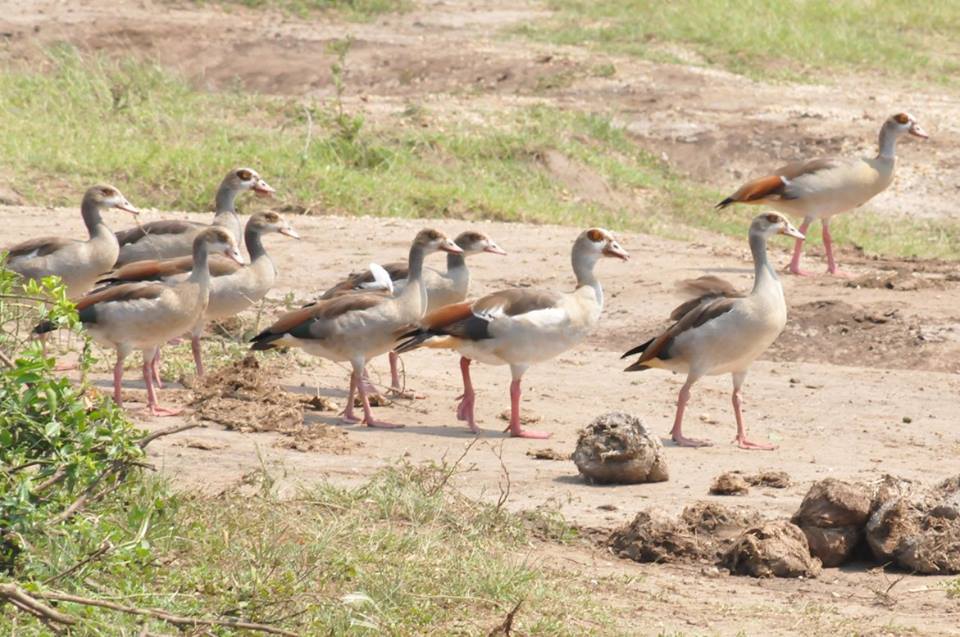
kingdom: Animalia
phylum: Chordata
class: Aves
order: Anseriformes
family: Anatidae
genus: Alopochen
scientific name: Alopochen aegyptiaca
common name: Egyptian goose
